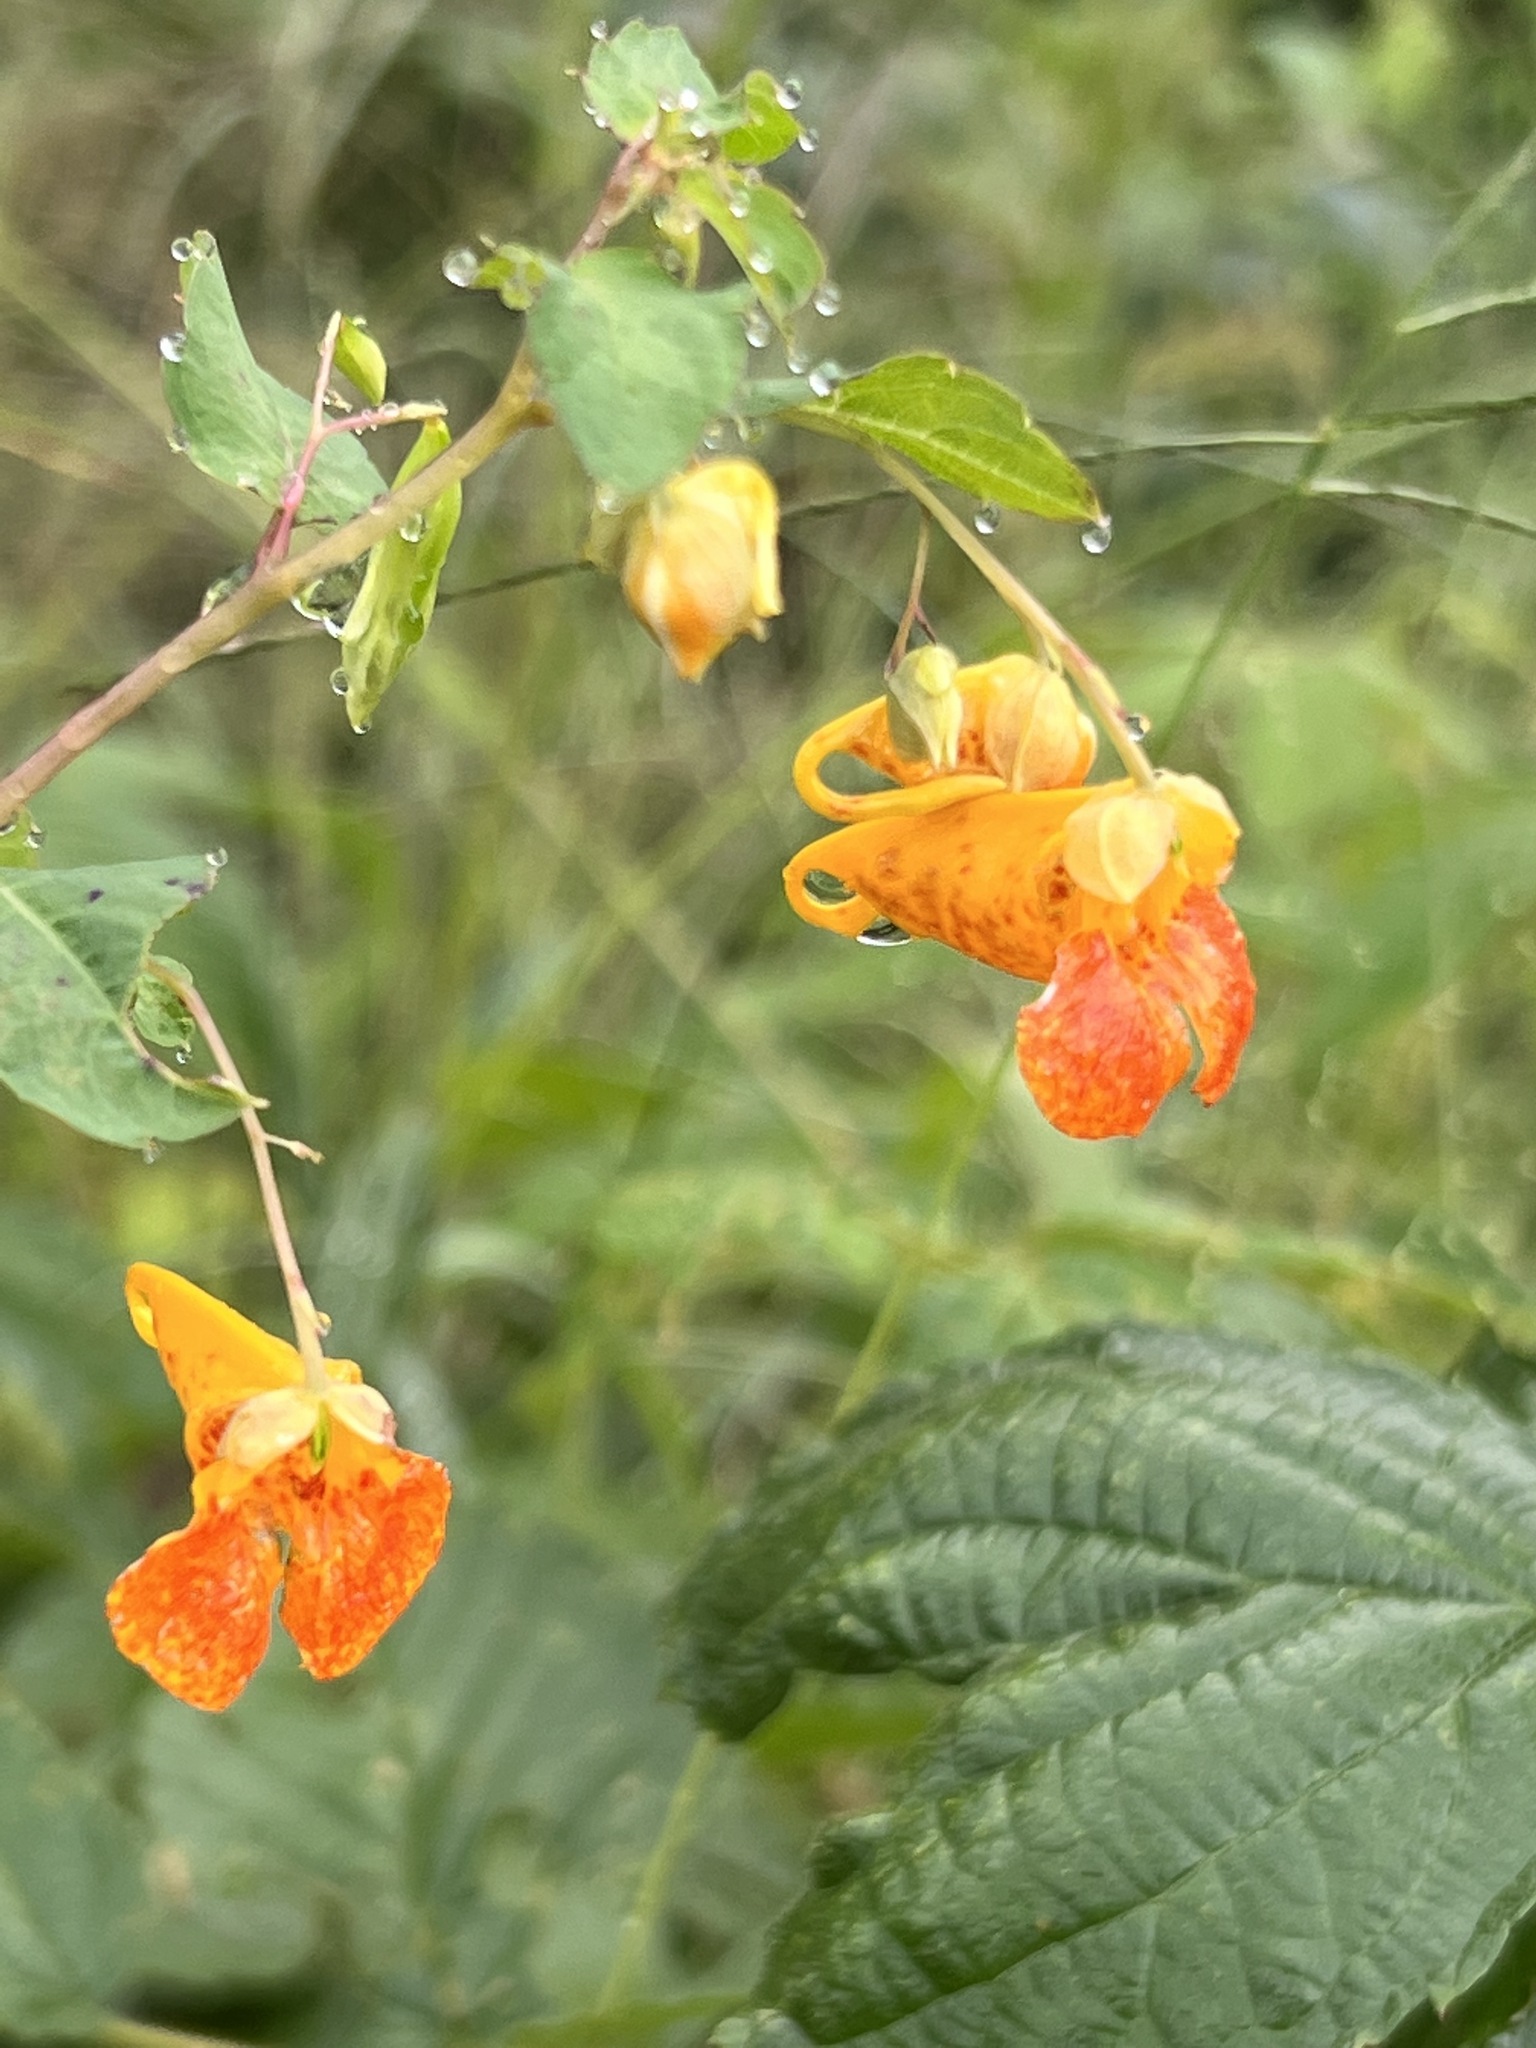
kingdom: Plantae
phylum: Tracheophyta
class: Magnoliopsida
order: Ericales
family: Balsaminaceae
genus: Impatiens
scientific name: Impatiens capensis
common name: Orange balsam
